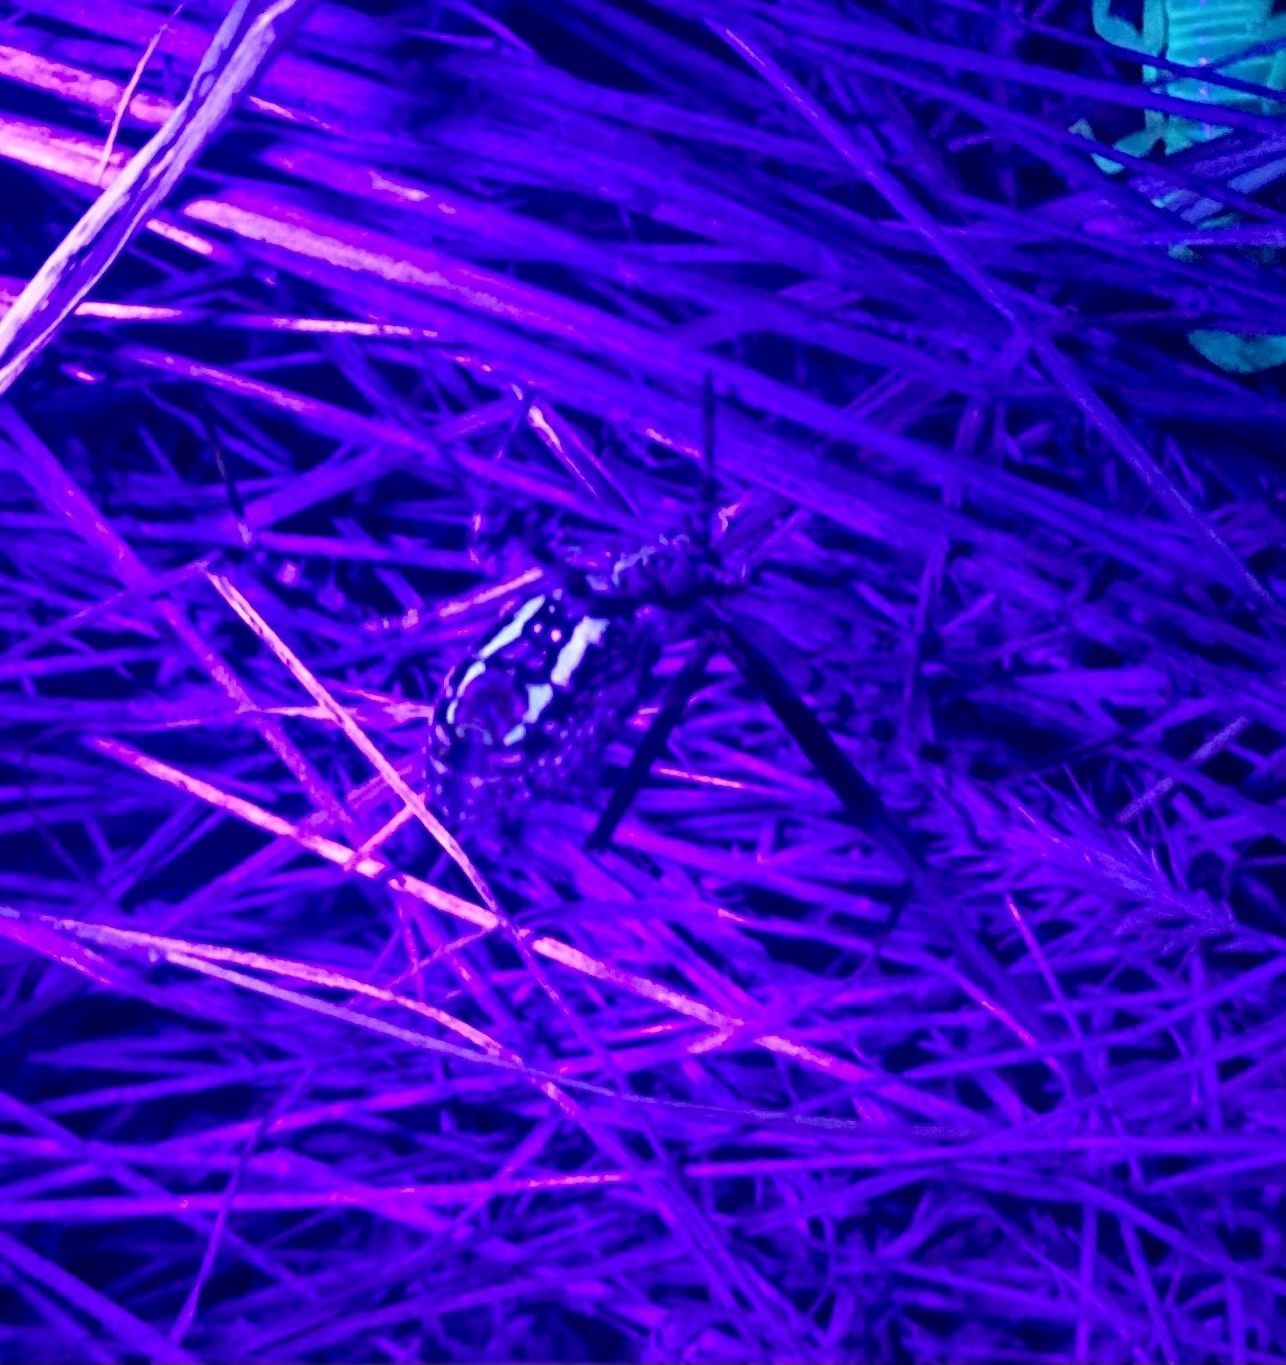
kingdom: Animalia
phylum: Arthropoda
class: Arachnida
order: Araneae
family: Araneidae
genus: Argiope
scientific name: Argiope trifasciata
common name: Banded garden spider
